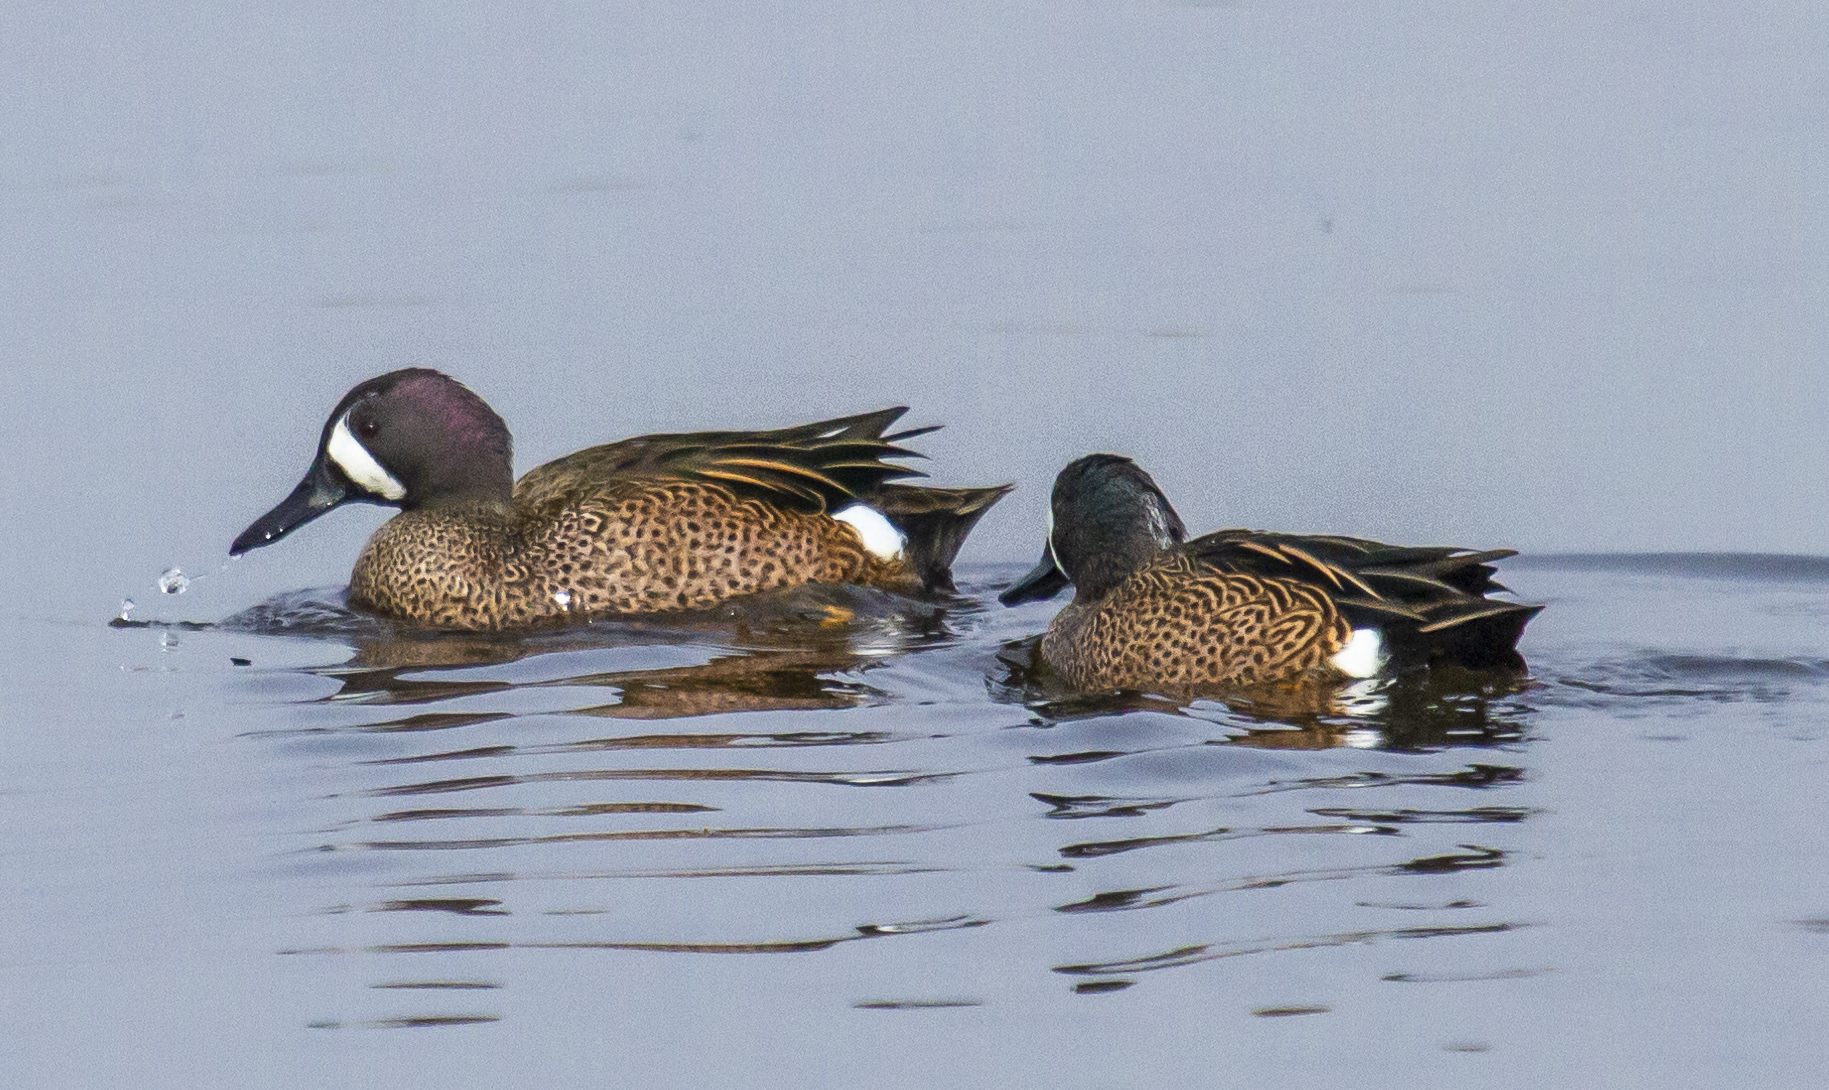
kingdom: Animalia
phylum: Chordata
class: Aves
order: Anseriformes
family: Anatidae
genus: Spatula
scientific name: Spatula discors
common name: Blue-winged teal
